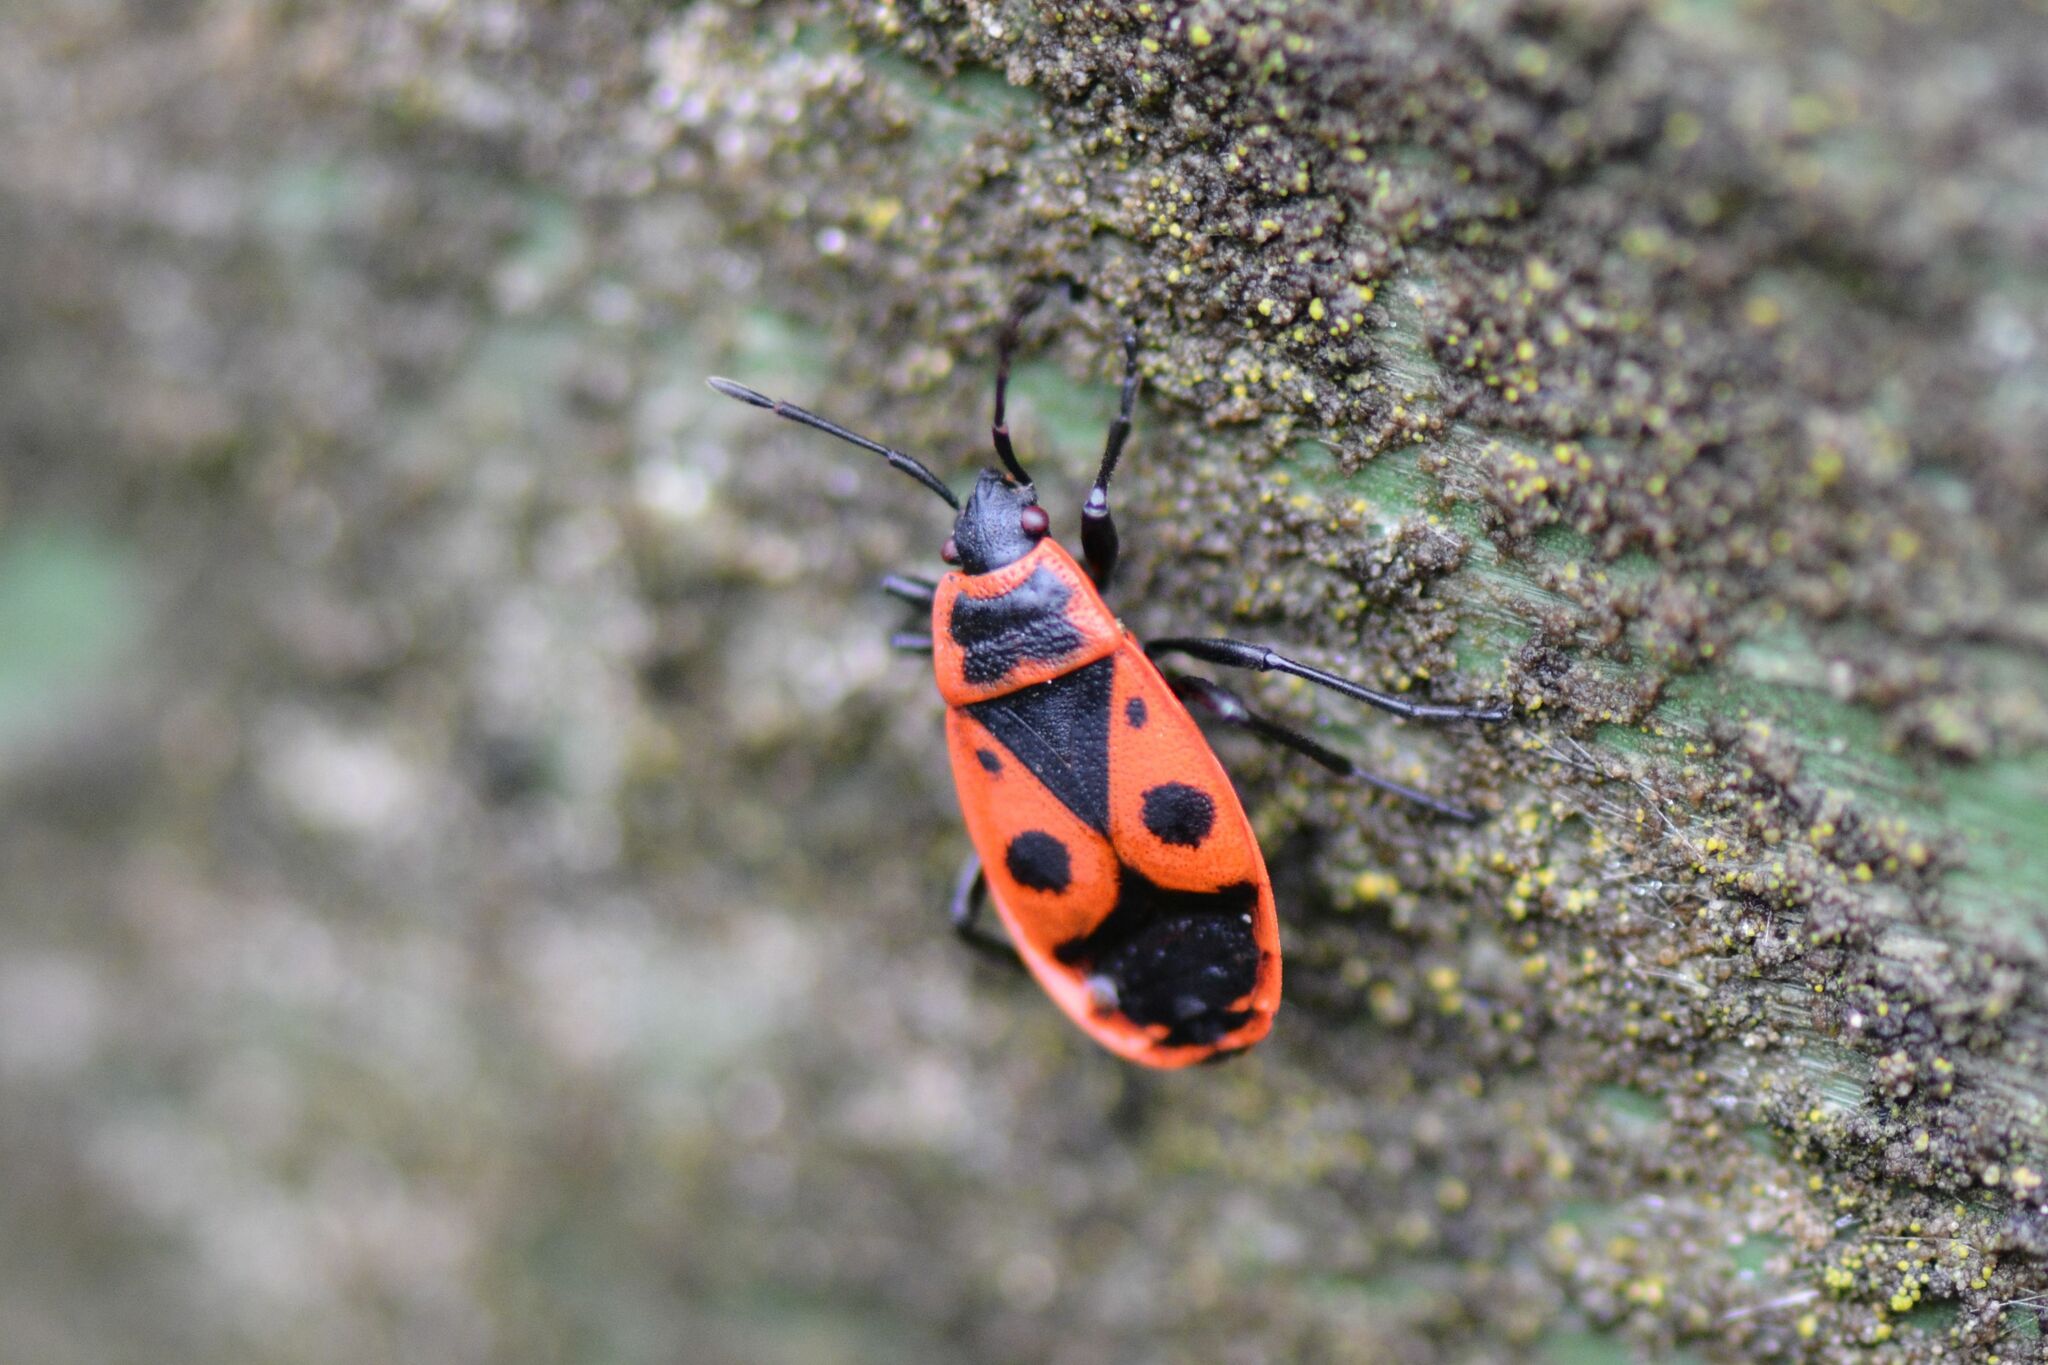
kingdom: Animalia
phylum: Arthropoda
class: Insecta
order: Hemiptera
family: Pyrrhocoridae
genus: Pyrrhocoris
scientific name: Pyrrhocoris apterus
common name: Firebug
